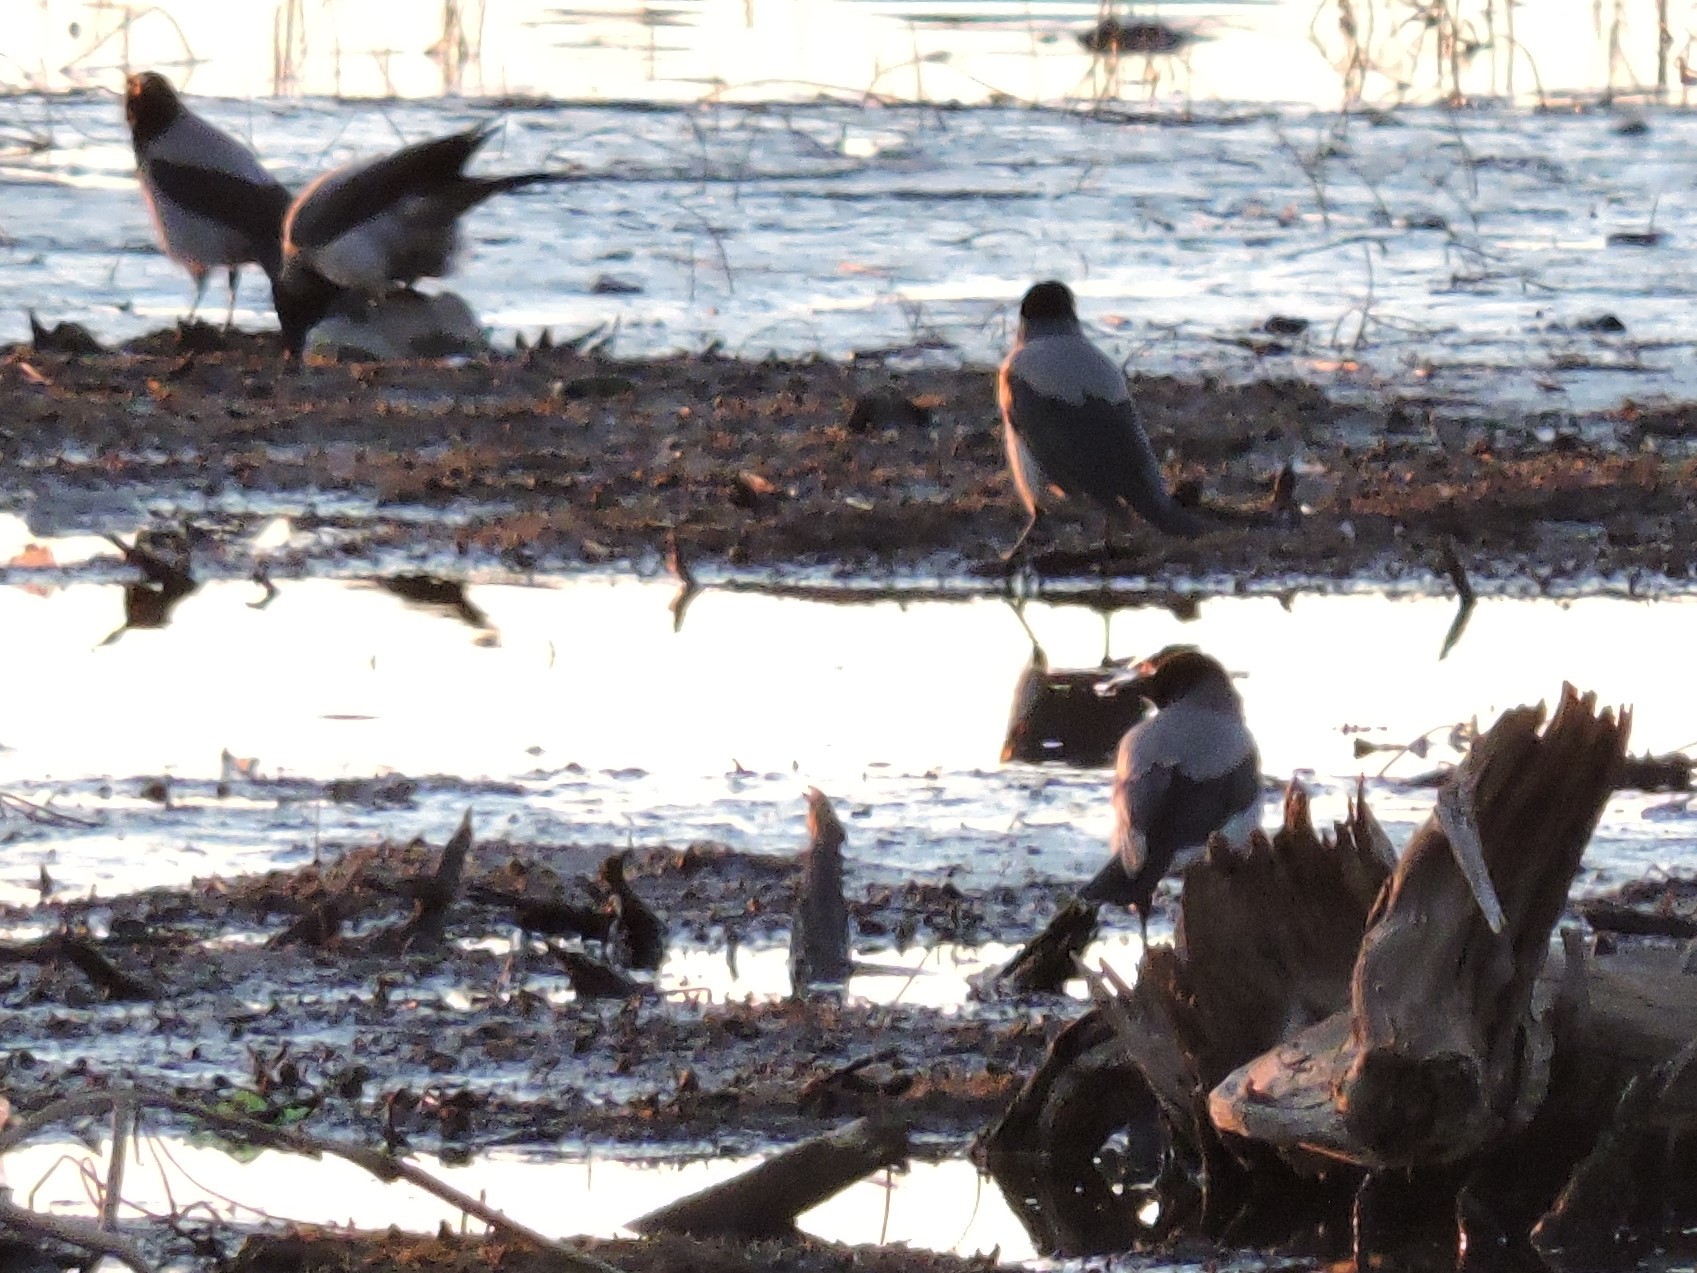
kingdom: Animalia
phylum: Chordata
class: Aves
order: Passeriformes
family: Corvidae
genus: Corvus
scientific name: Corvus cornix
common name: Hooded crow
